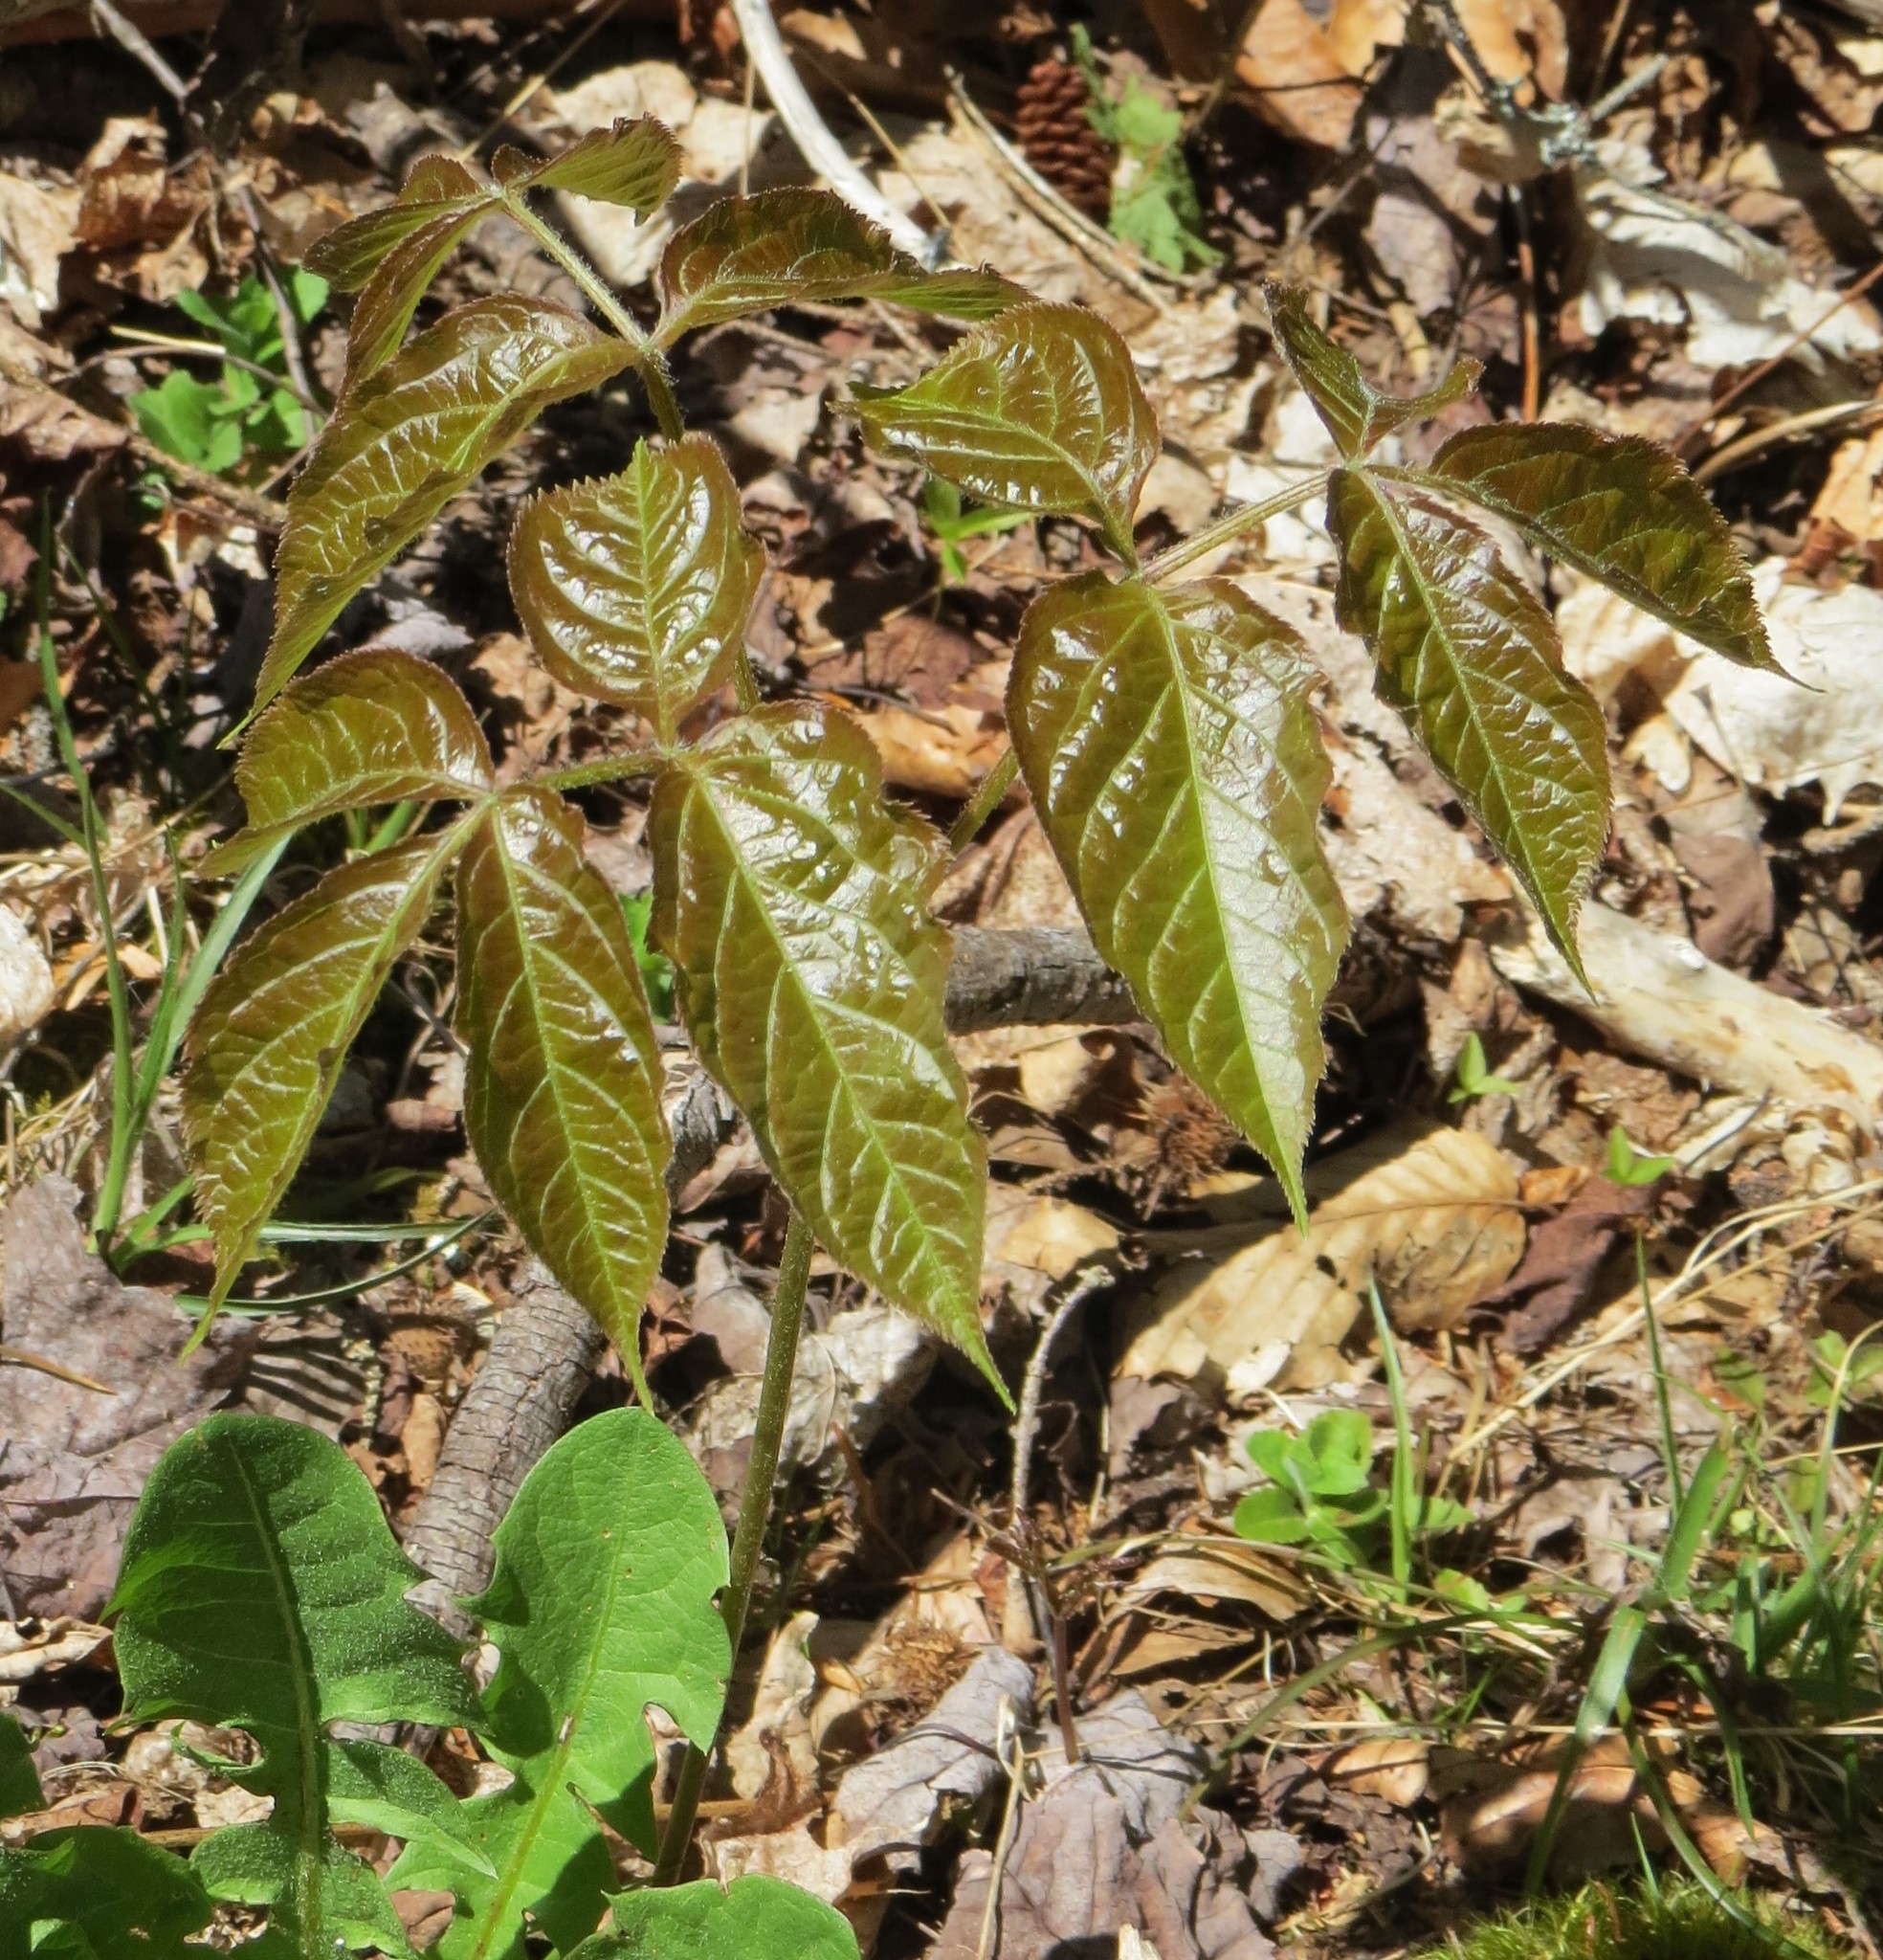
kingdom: Plantae
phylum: Tracheophyta
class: Magnoliopsida
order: Apiales
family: Araliaceae
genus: Aralia
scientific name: Aralia nudicaulis
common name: Wild sarsaparilla
